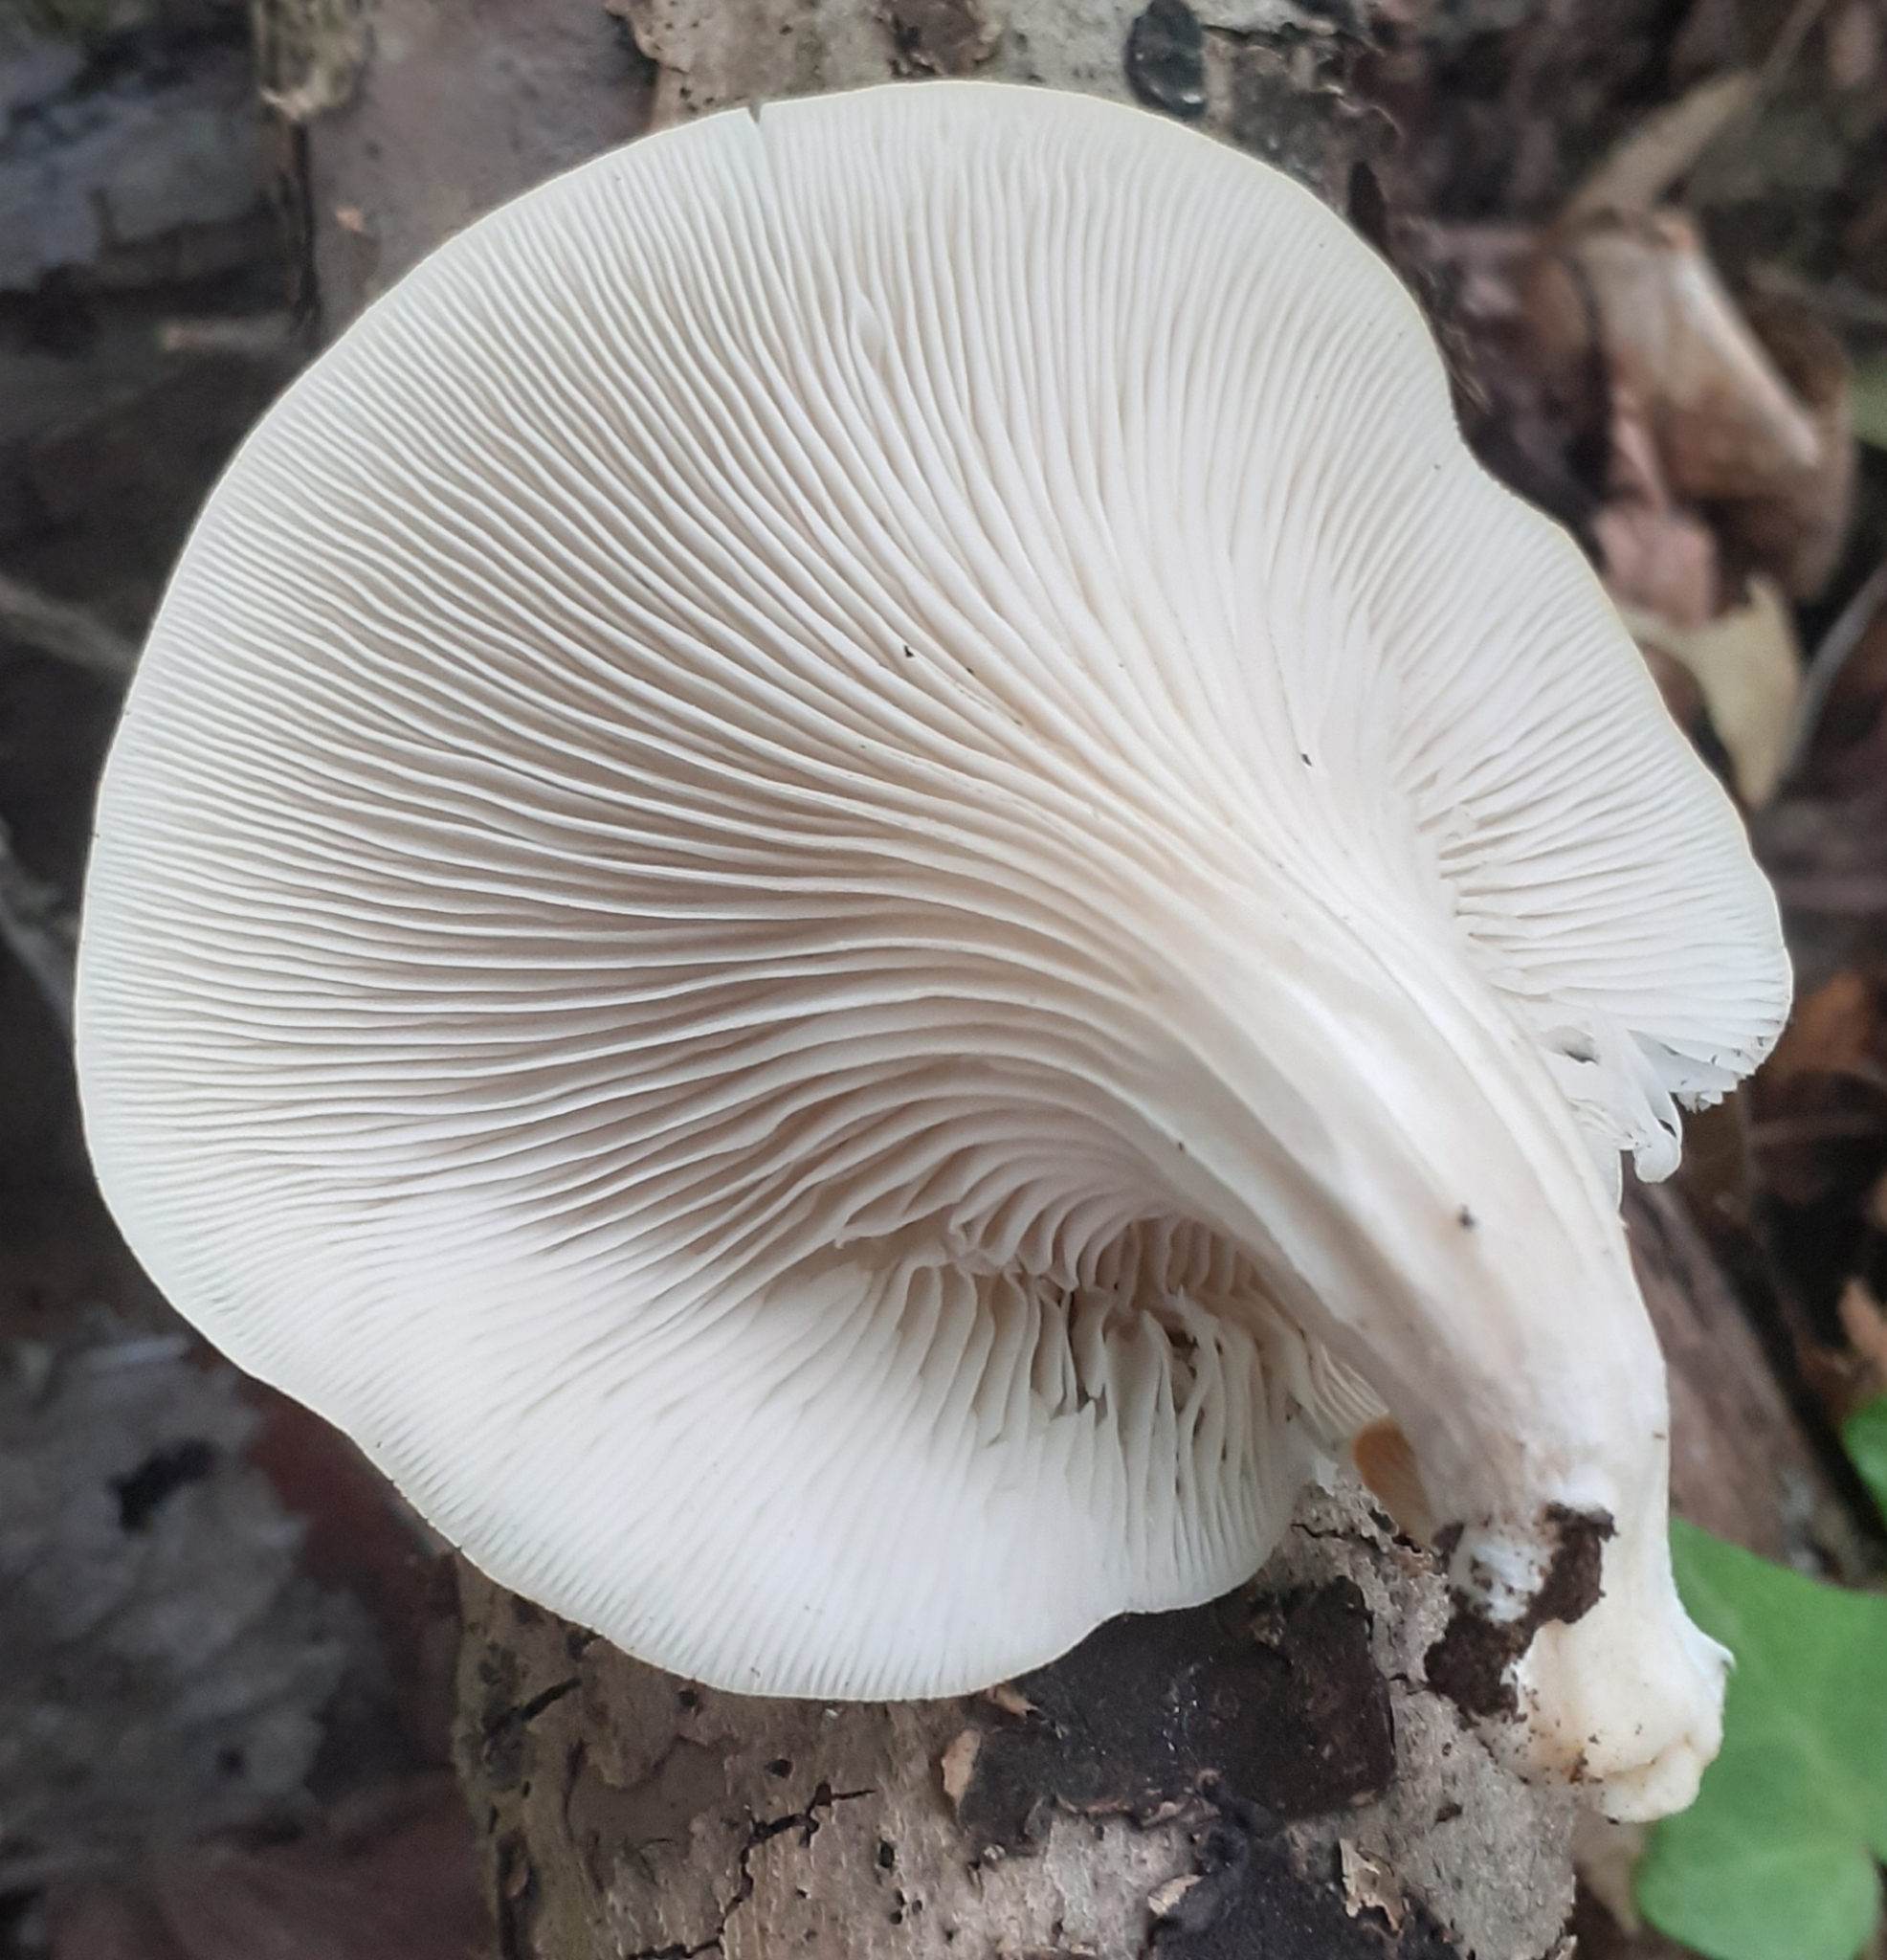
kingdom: Fungi
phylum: Basidiomycota
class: Agaricomycetes
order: Agaricales
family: Pleurotaceae
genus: Pleurotus
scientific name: Pleurotus pulmonarius
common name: Pale oyster
